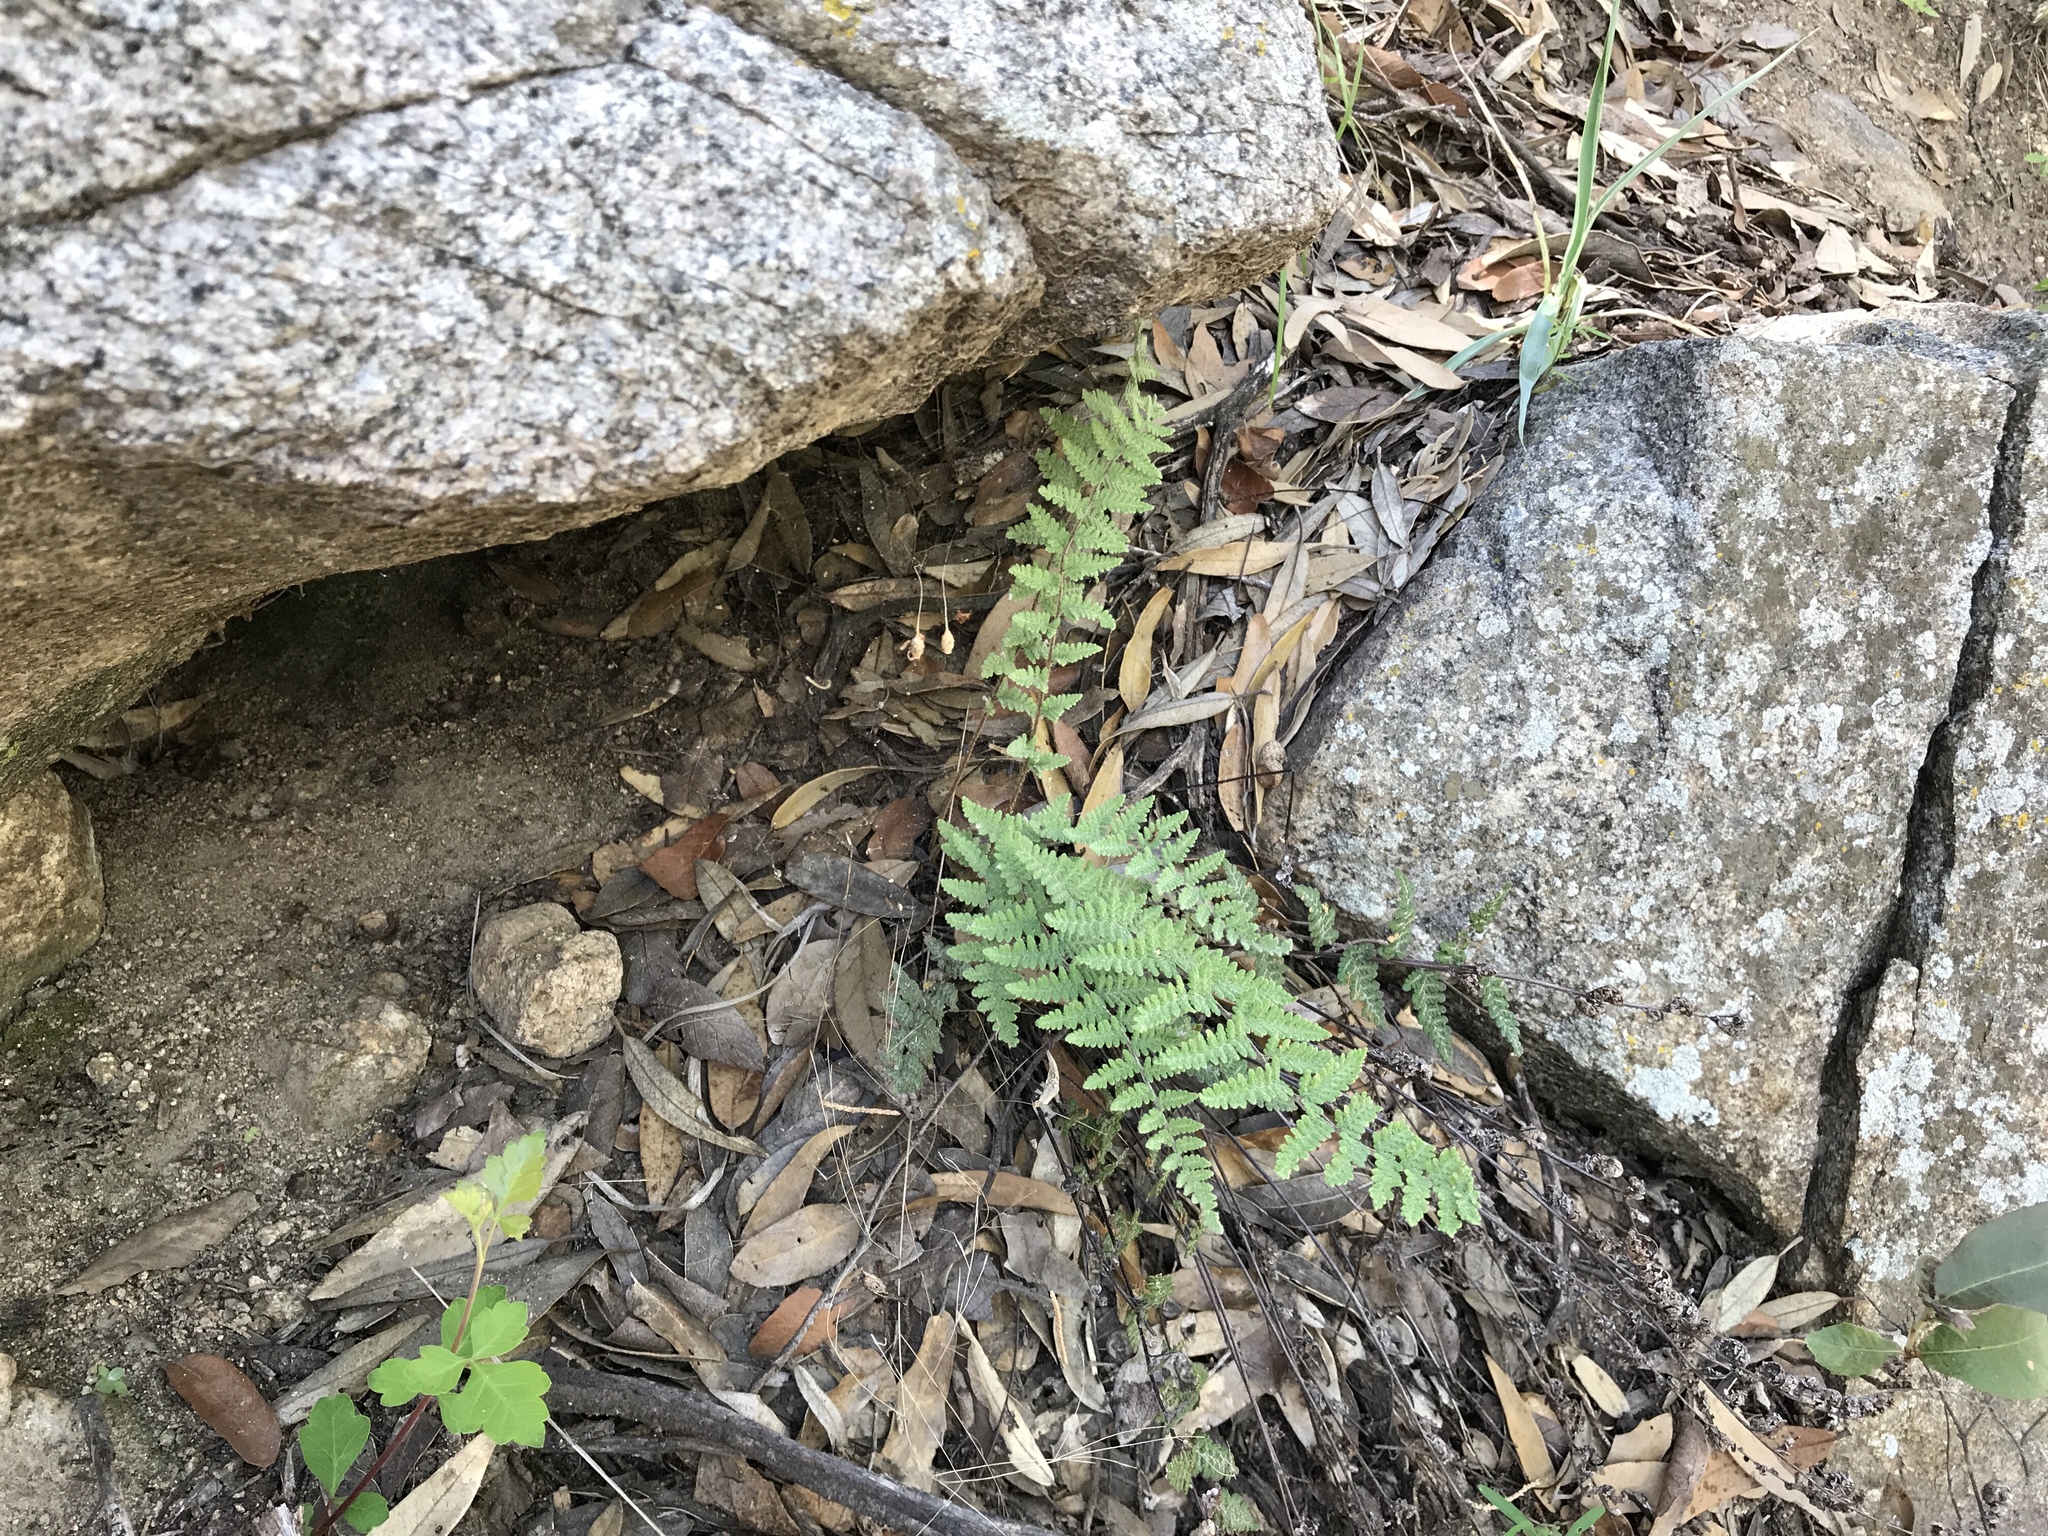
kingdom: Plantae
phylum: Tracheophyta
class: Polypodiopsida
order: Polypodiales
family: Pteridaceae
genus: Myriopteris
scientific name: Myriopteris tomentosa
